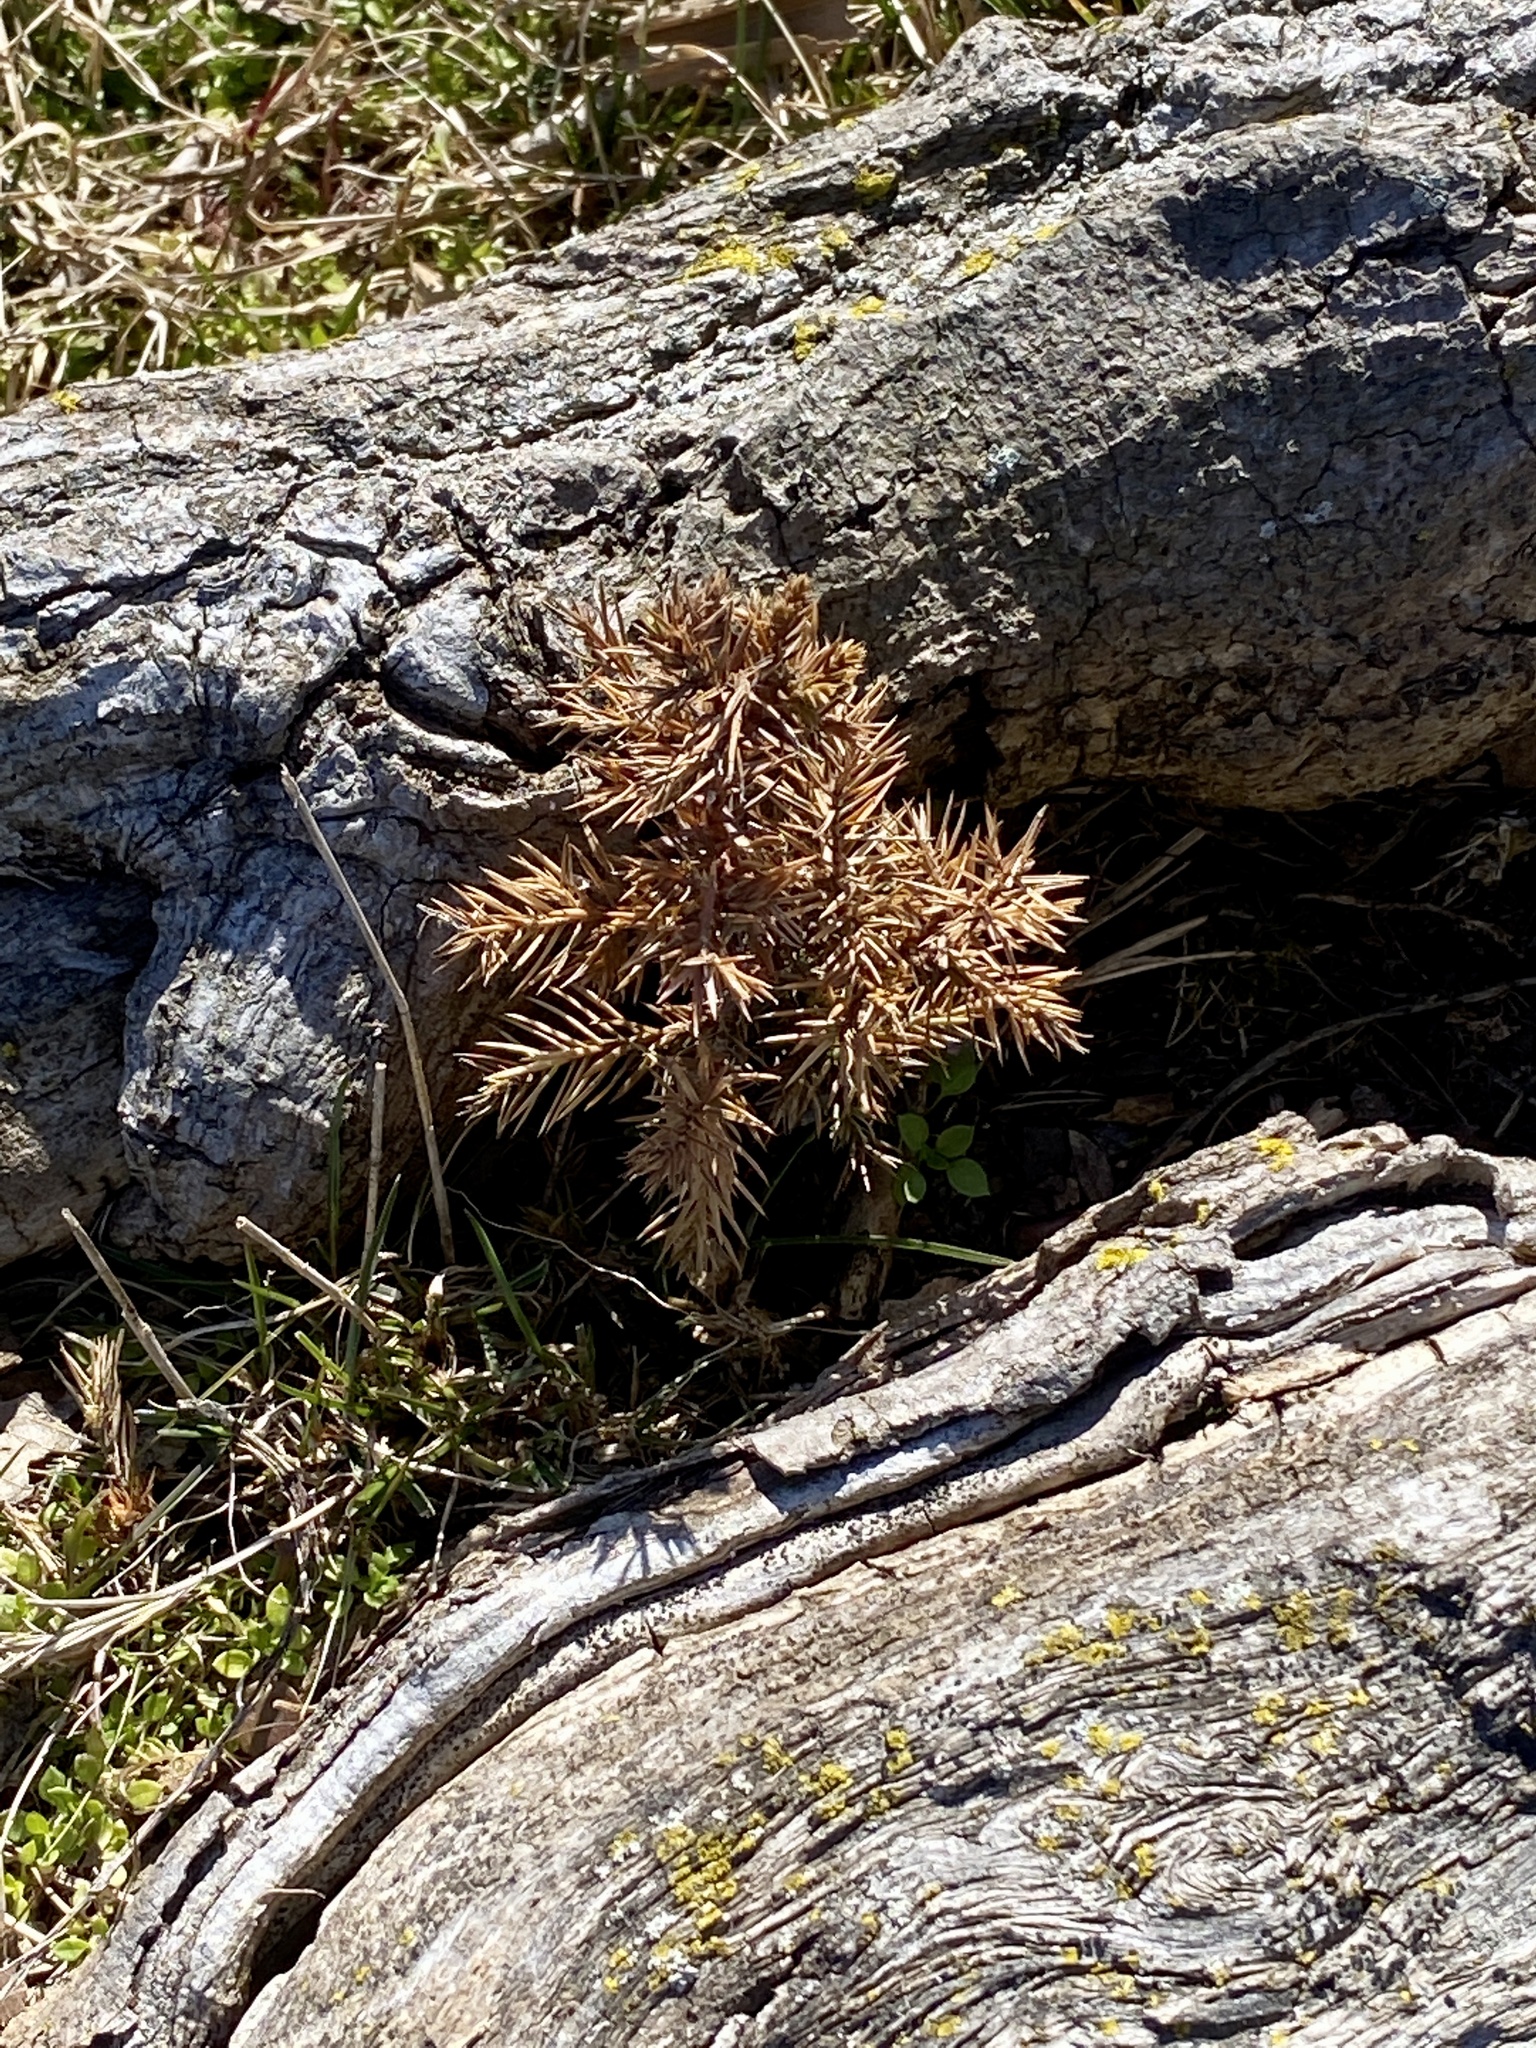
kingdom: Plantae
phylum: Tracheophyta
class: Pinopsida
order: Pinales
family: Cupressaceae
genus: Juniperus
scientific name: Juniperus virginiana
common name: Red juniper
